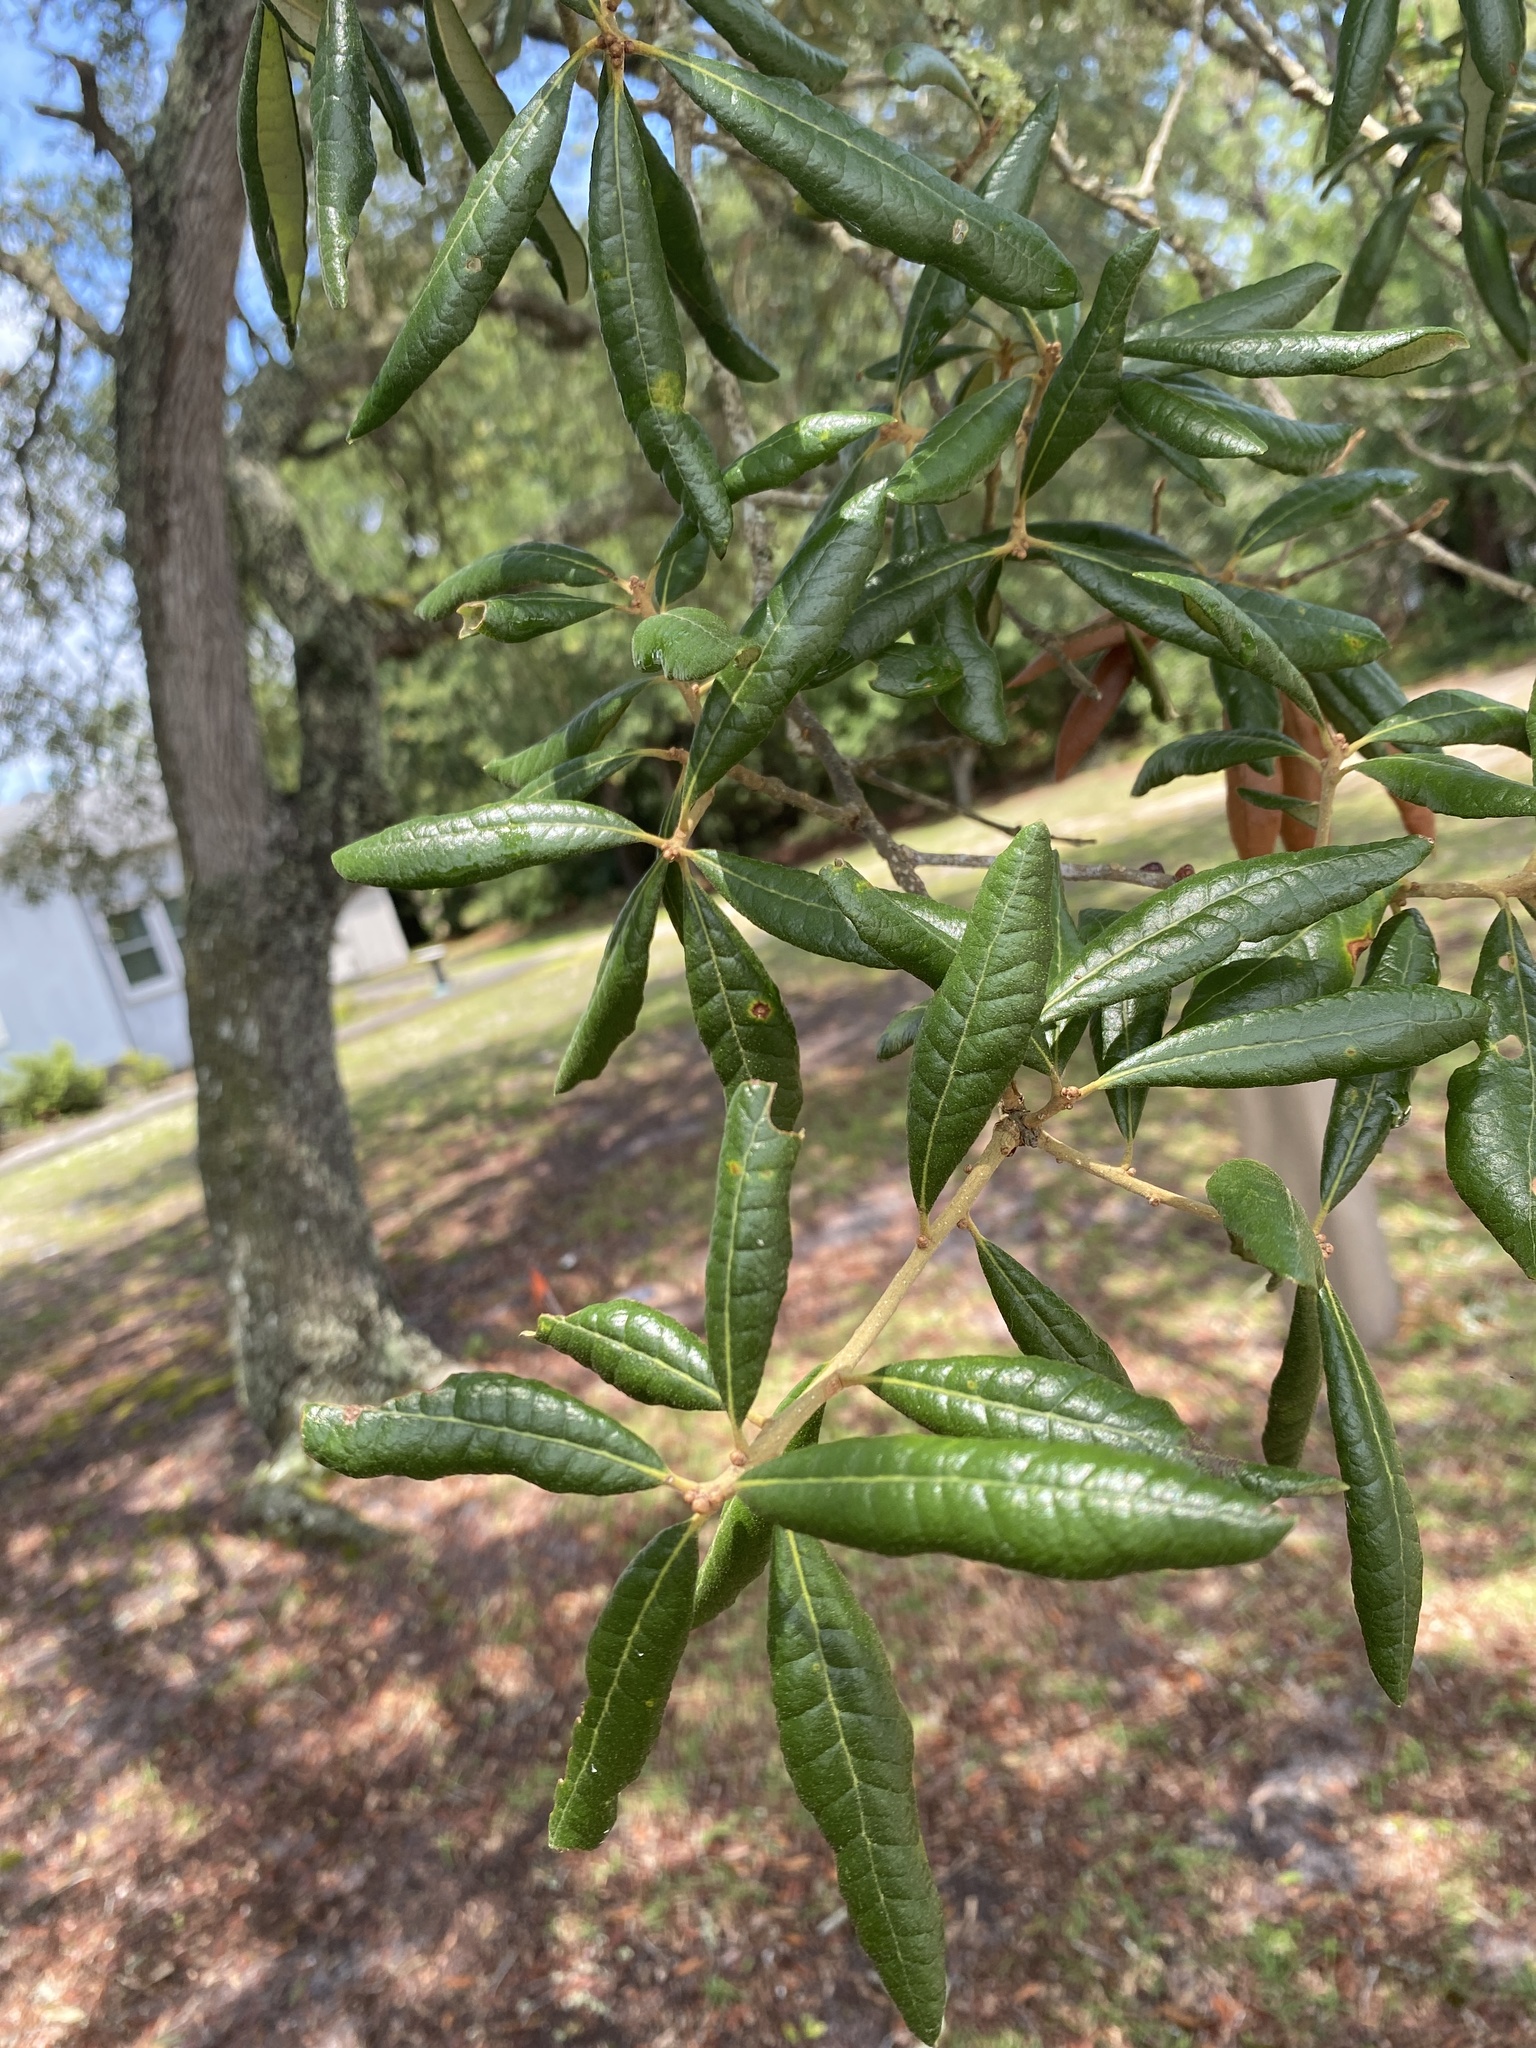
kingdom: Plantae
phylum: Tracheophyta
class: Magnoliopsida
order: Fagales
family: Fagaceae
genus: Quercus
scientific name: Quercus geminata
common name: Sand live oak
